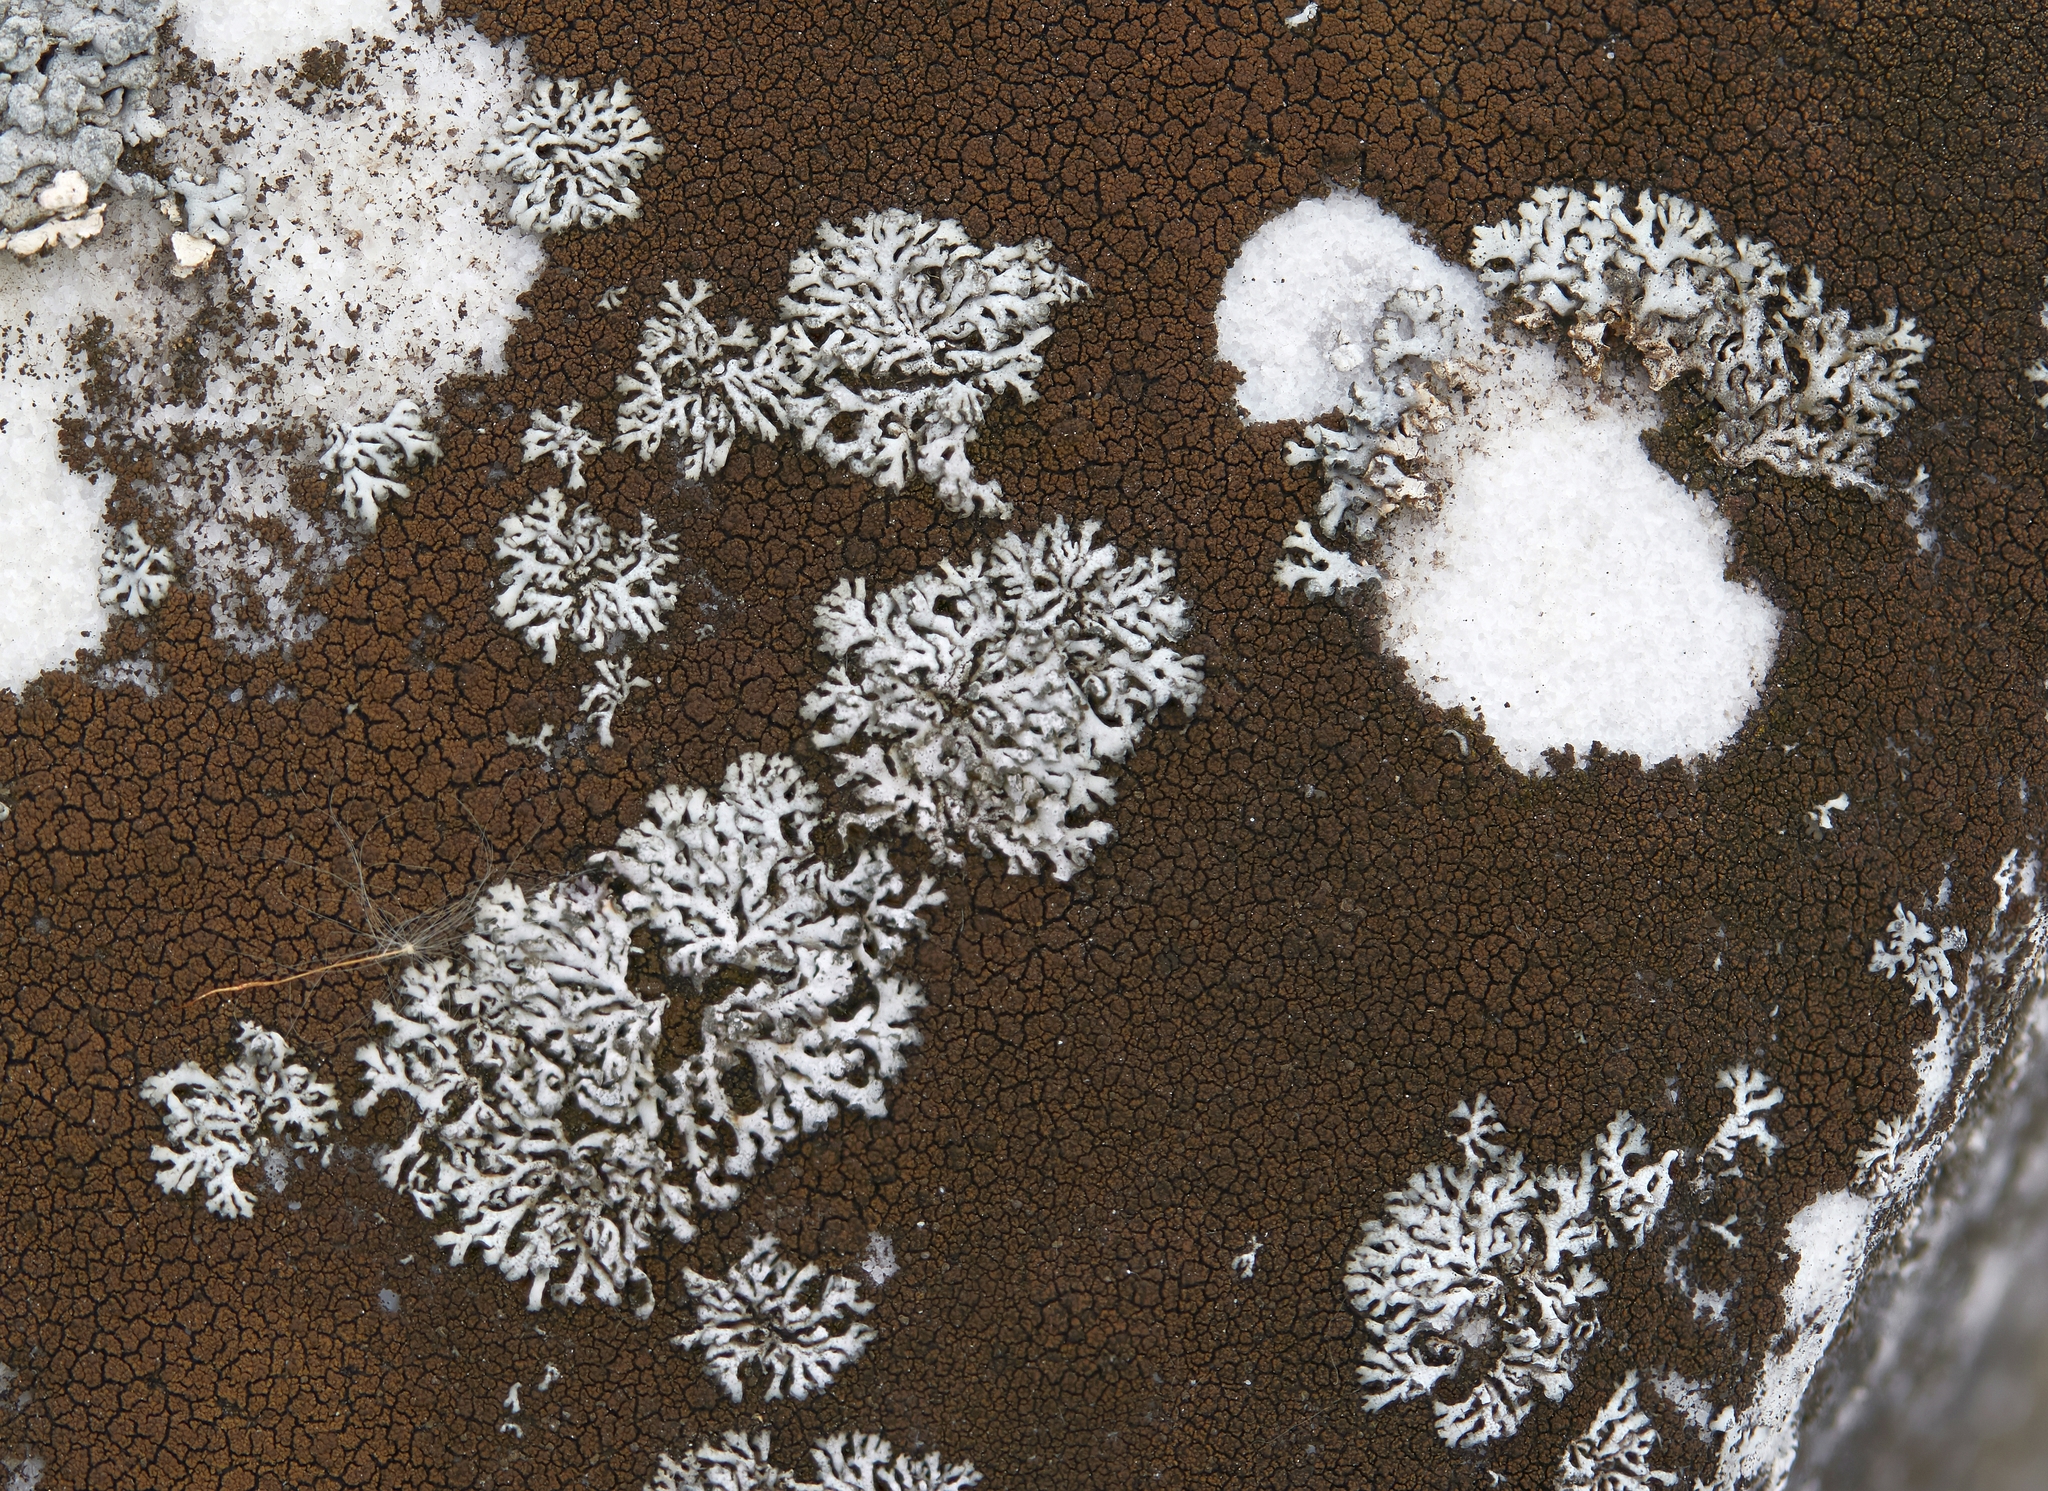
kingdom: Fungi
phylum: Ascomycota
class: Lecanoromycetes
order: Caliciales
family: Physciaceae
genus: Physcia
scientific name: Physcia thomsoniana
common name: Thomson's rosette lichen
